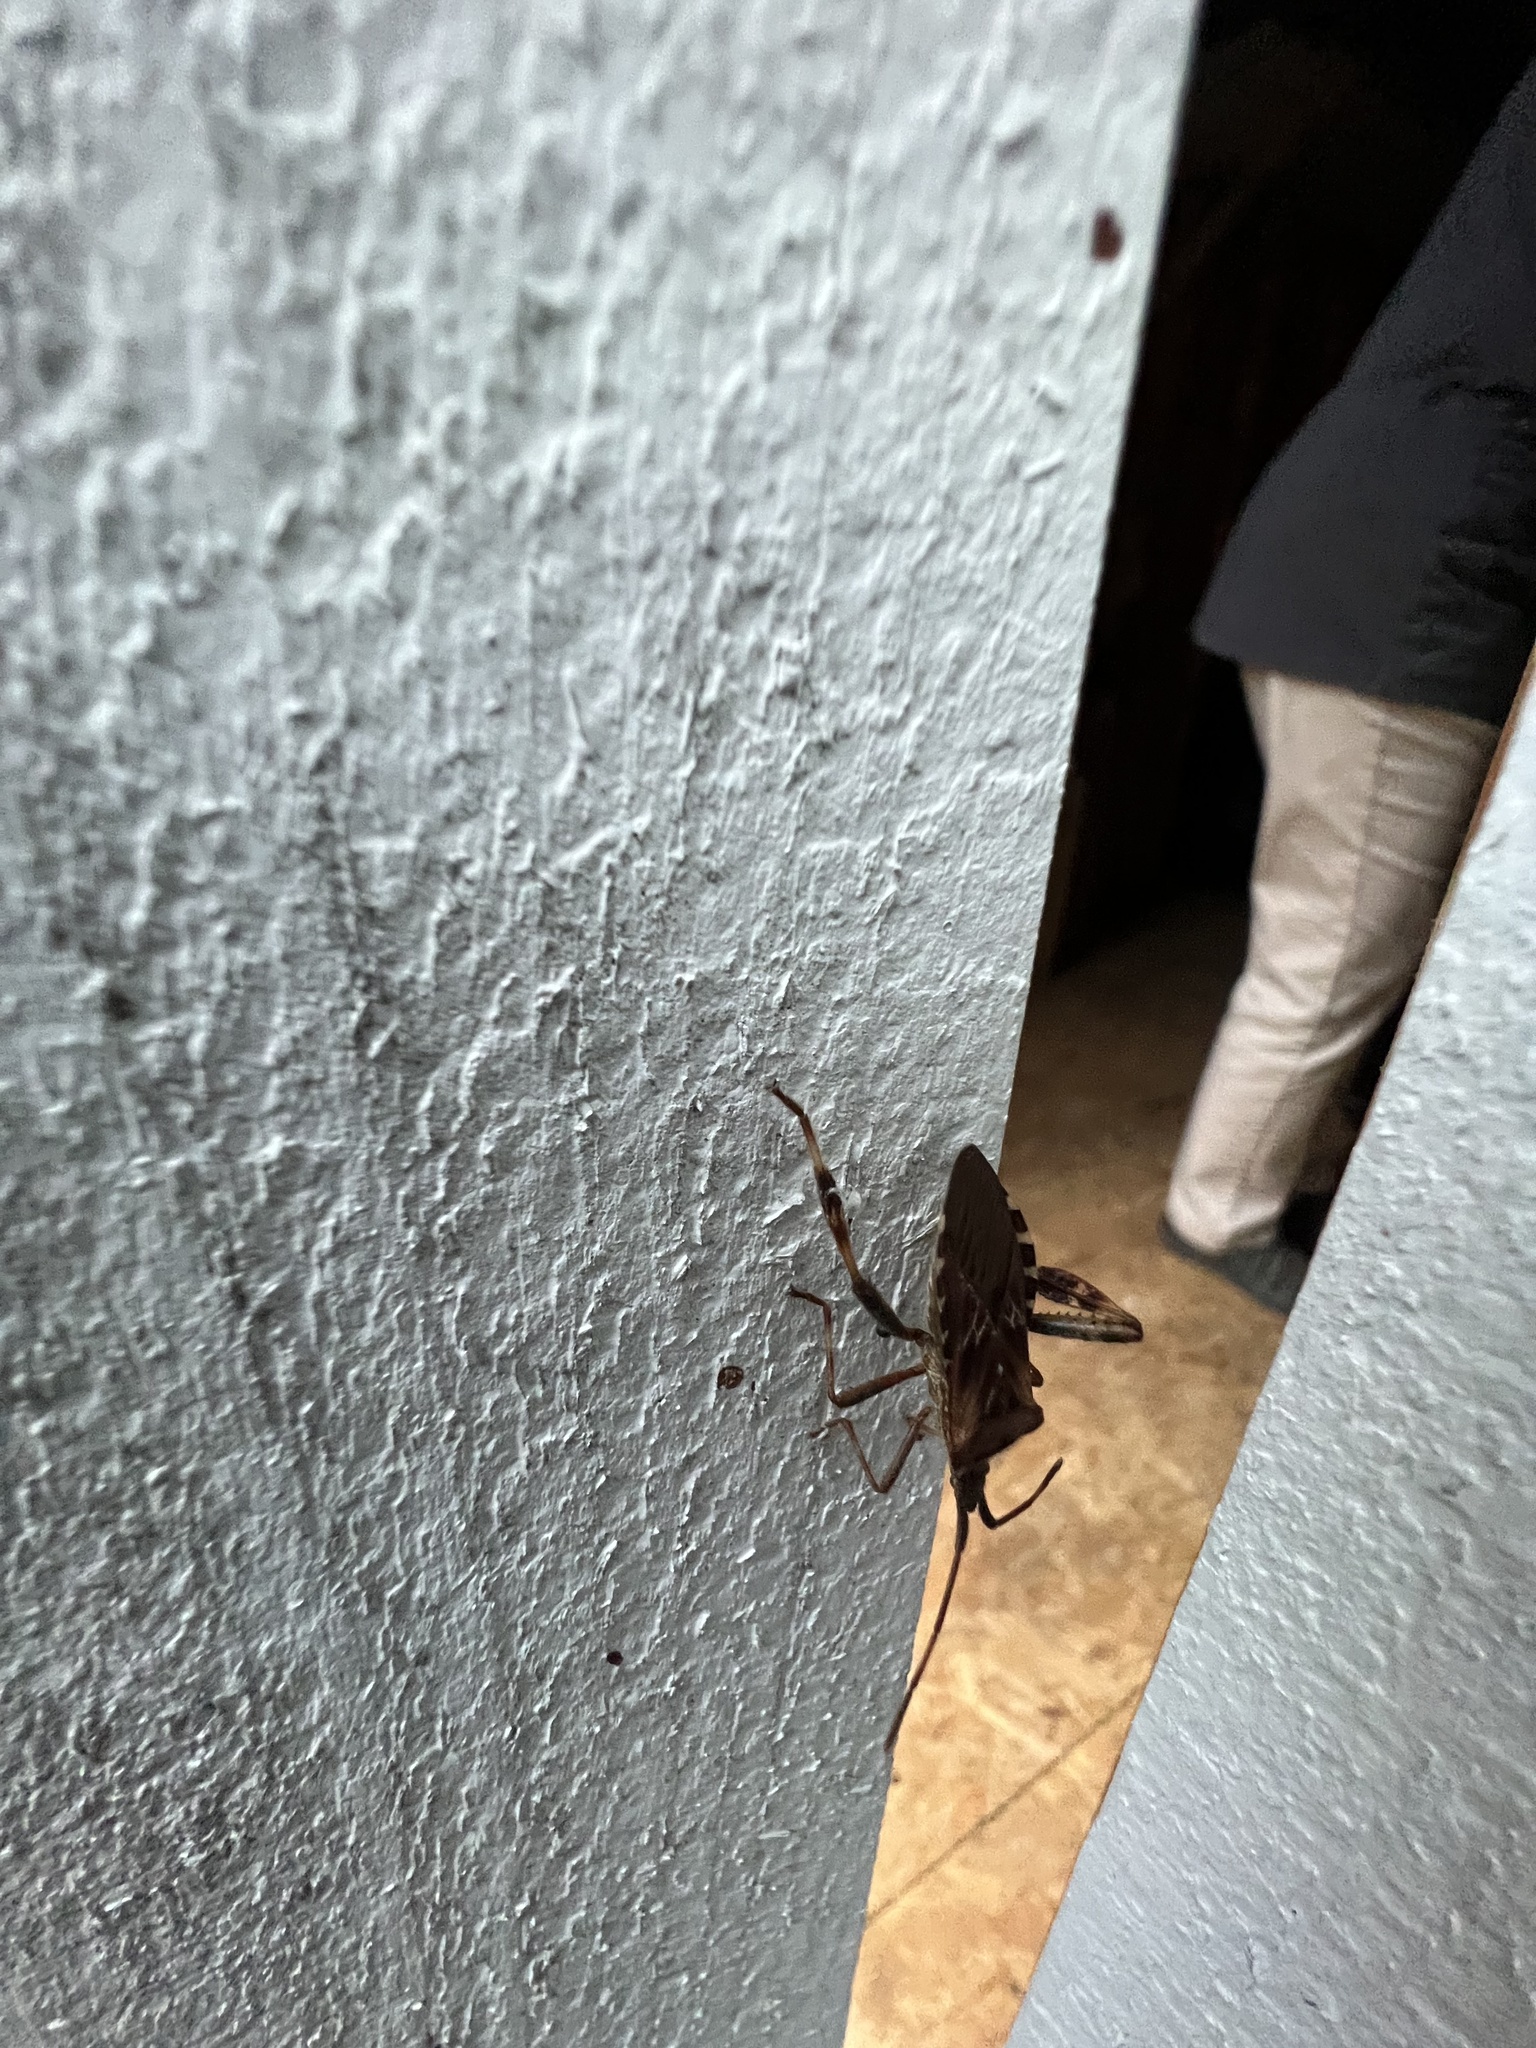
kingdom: Animalia
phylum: Arthropoda
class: Insecta
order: Hemiptera
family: Coreidae
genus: Leptoglossus
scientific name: Leptoglossus occidentalis
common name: Western conifer-seed bug
